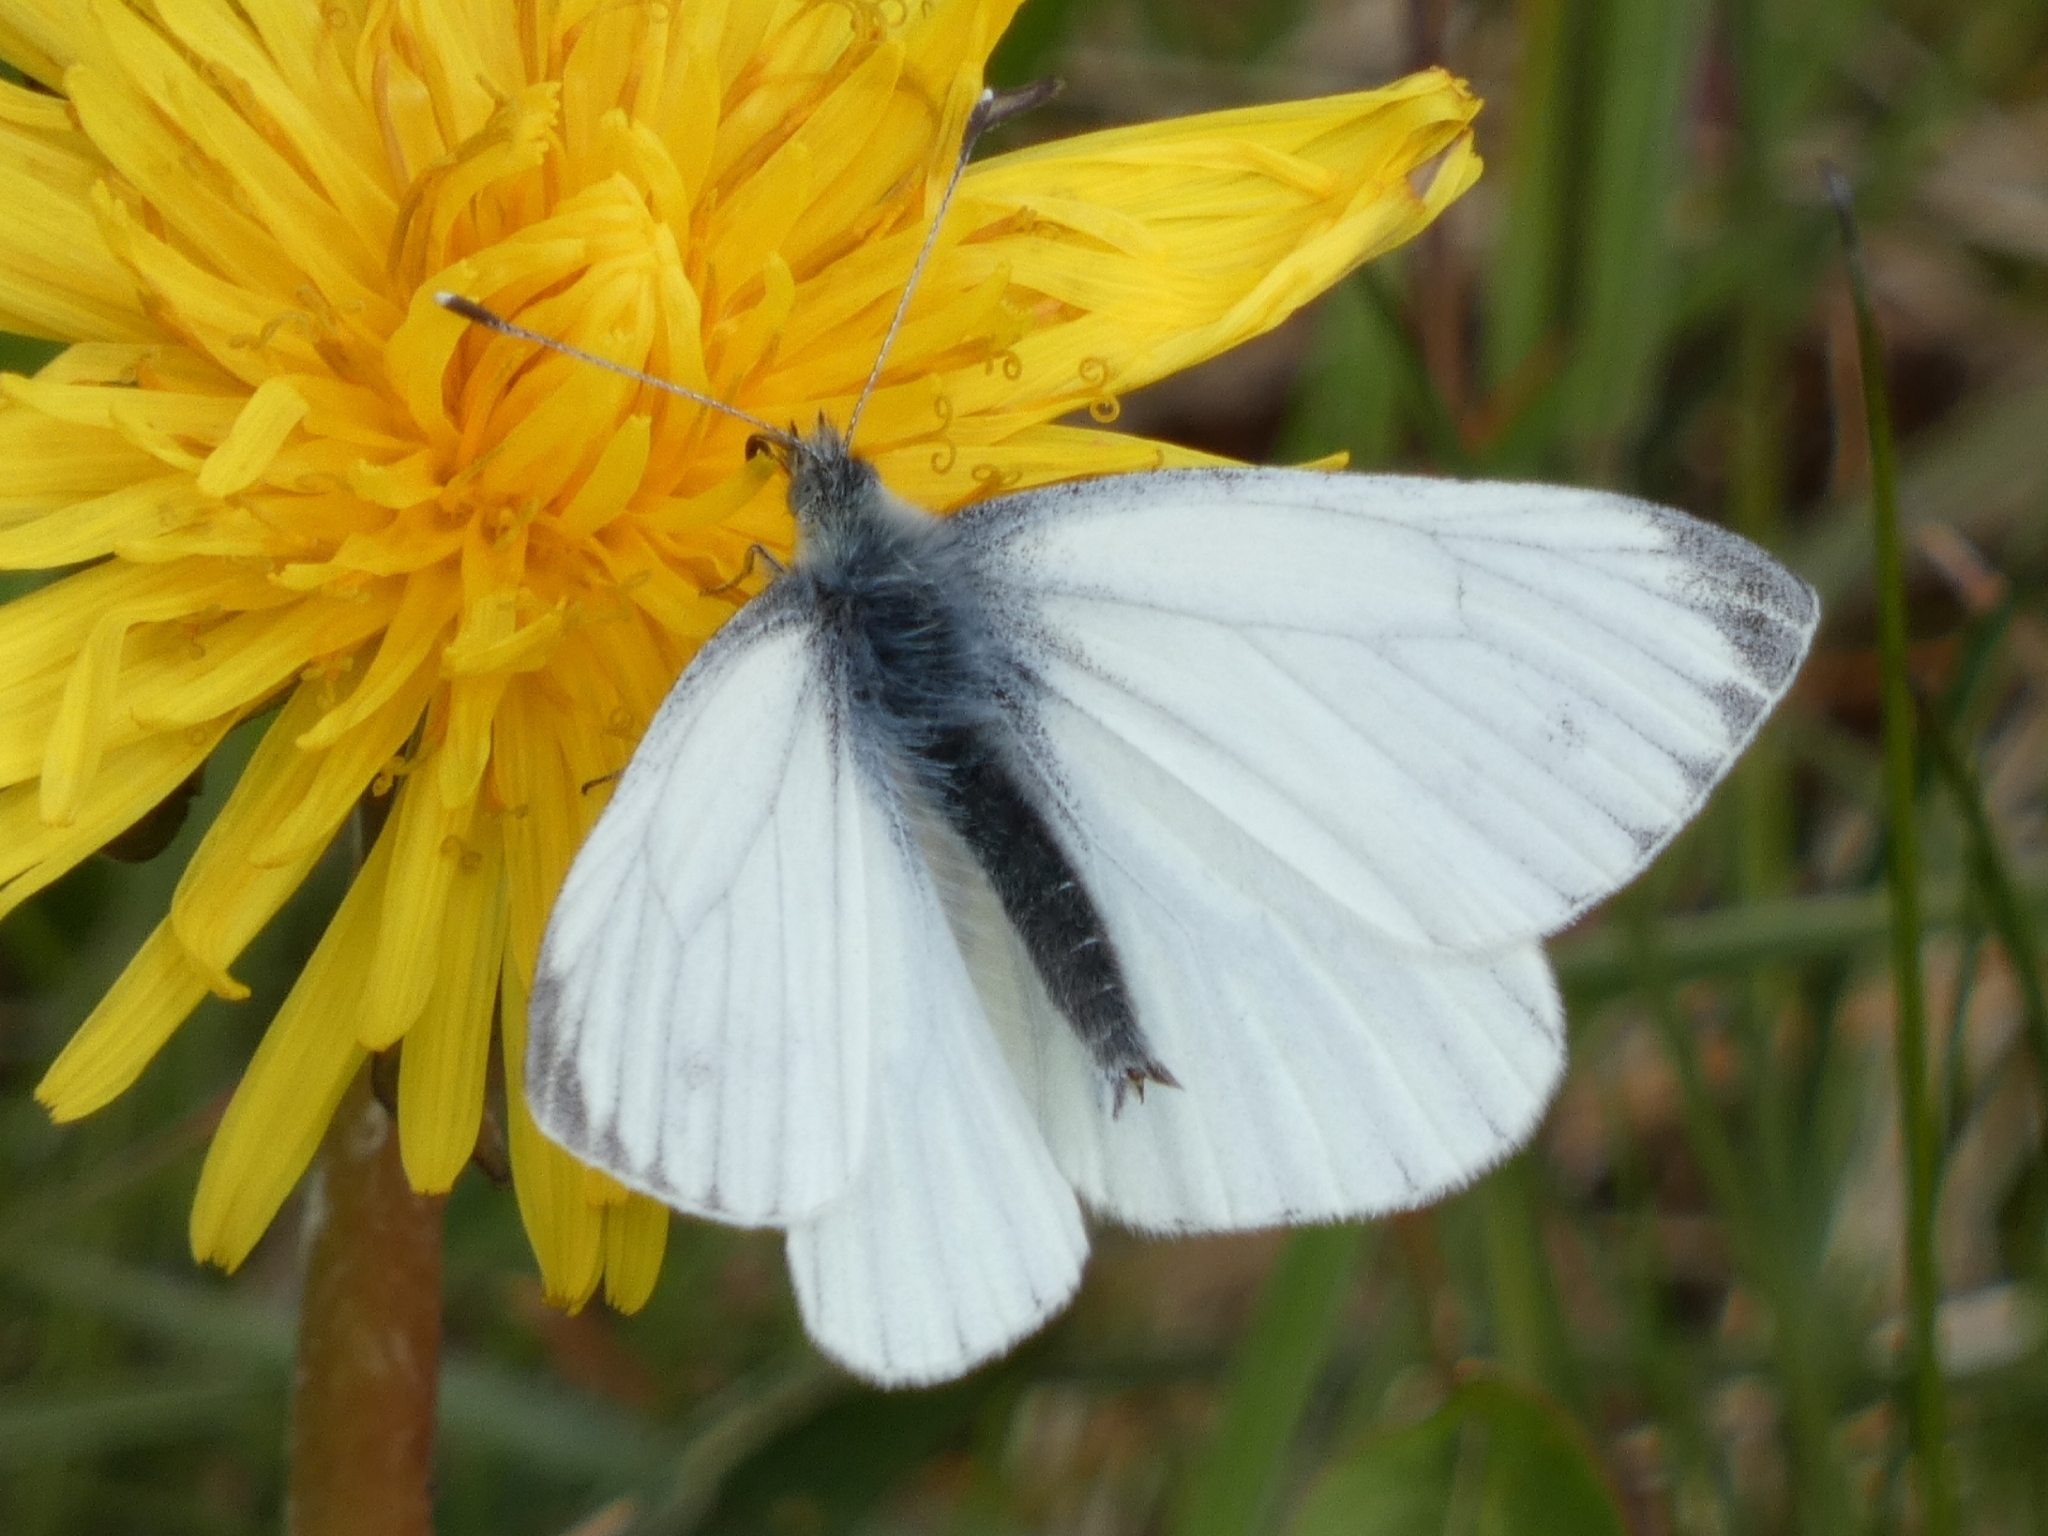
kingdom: Animalia
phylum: Arthropoda
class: Insecta
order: Lepidoptera
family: Pieridae
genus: Pieris
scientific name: Pieris napi
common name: Green-veined white
